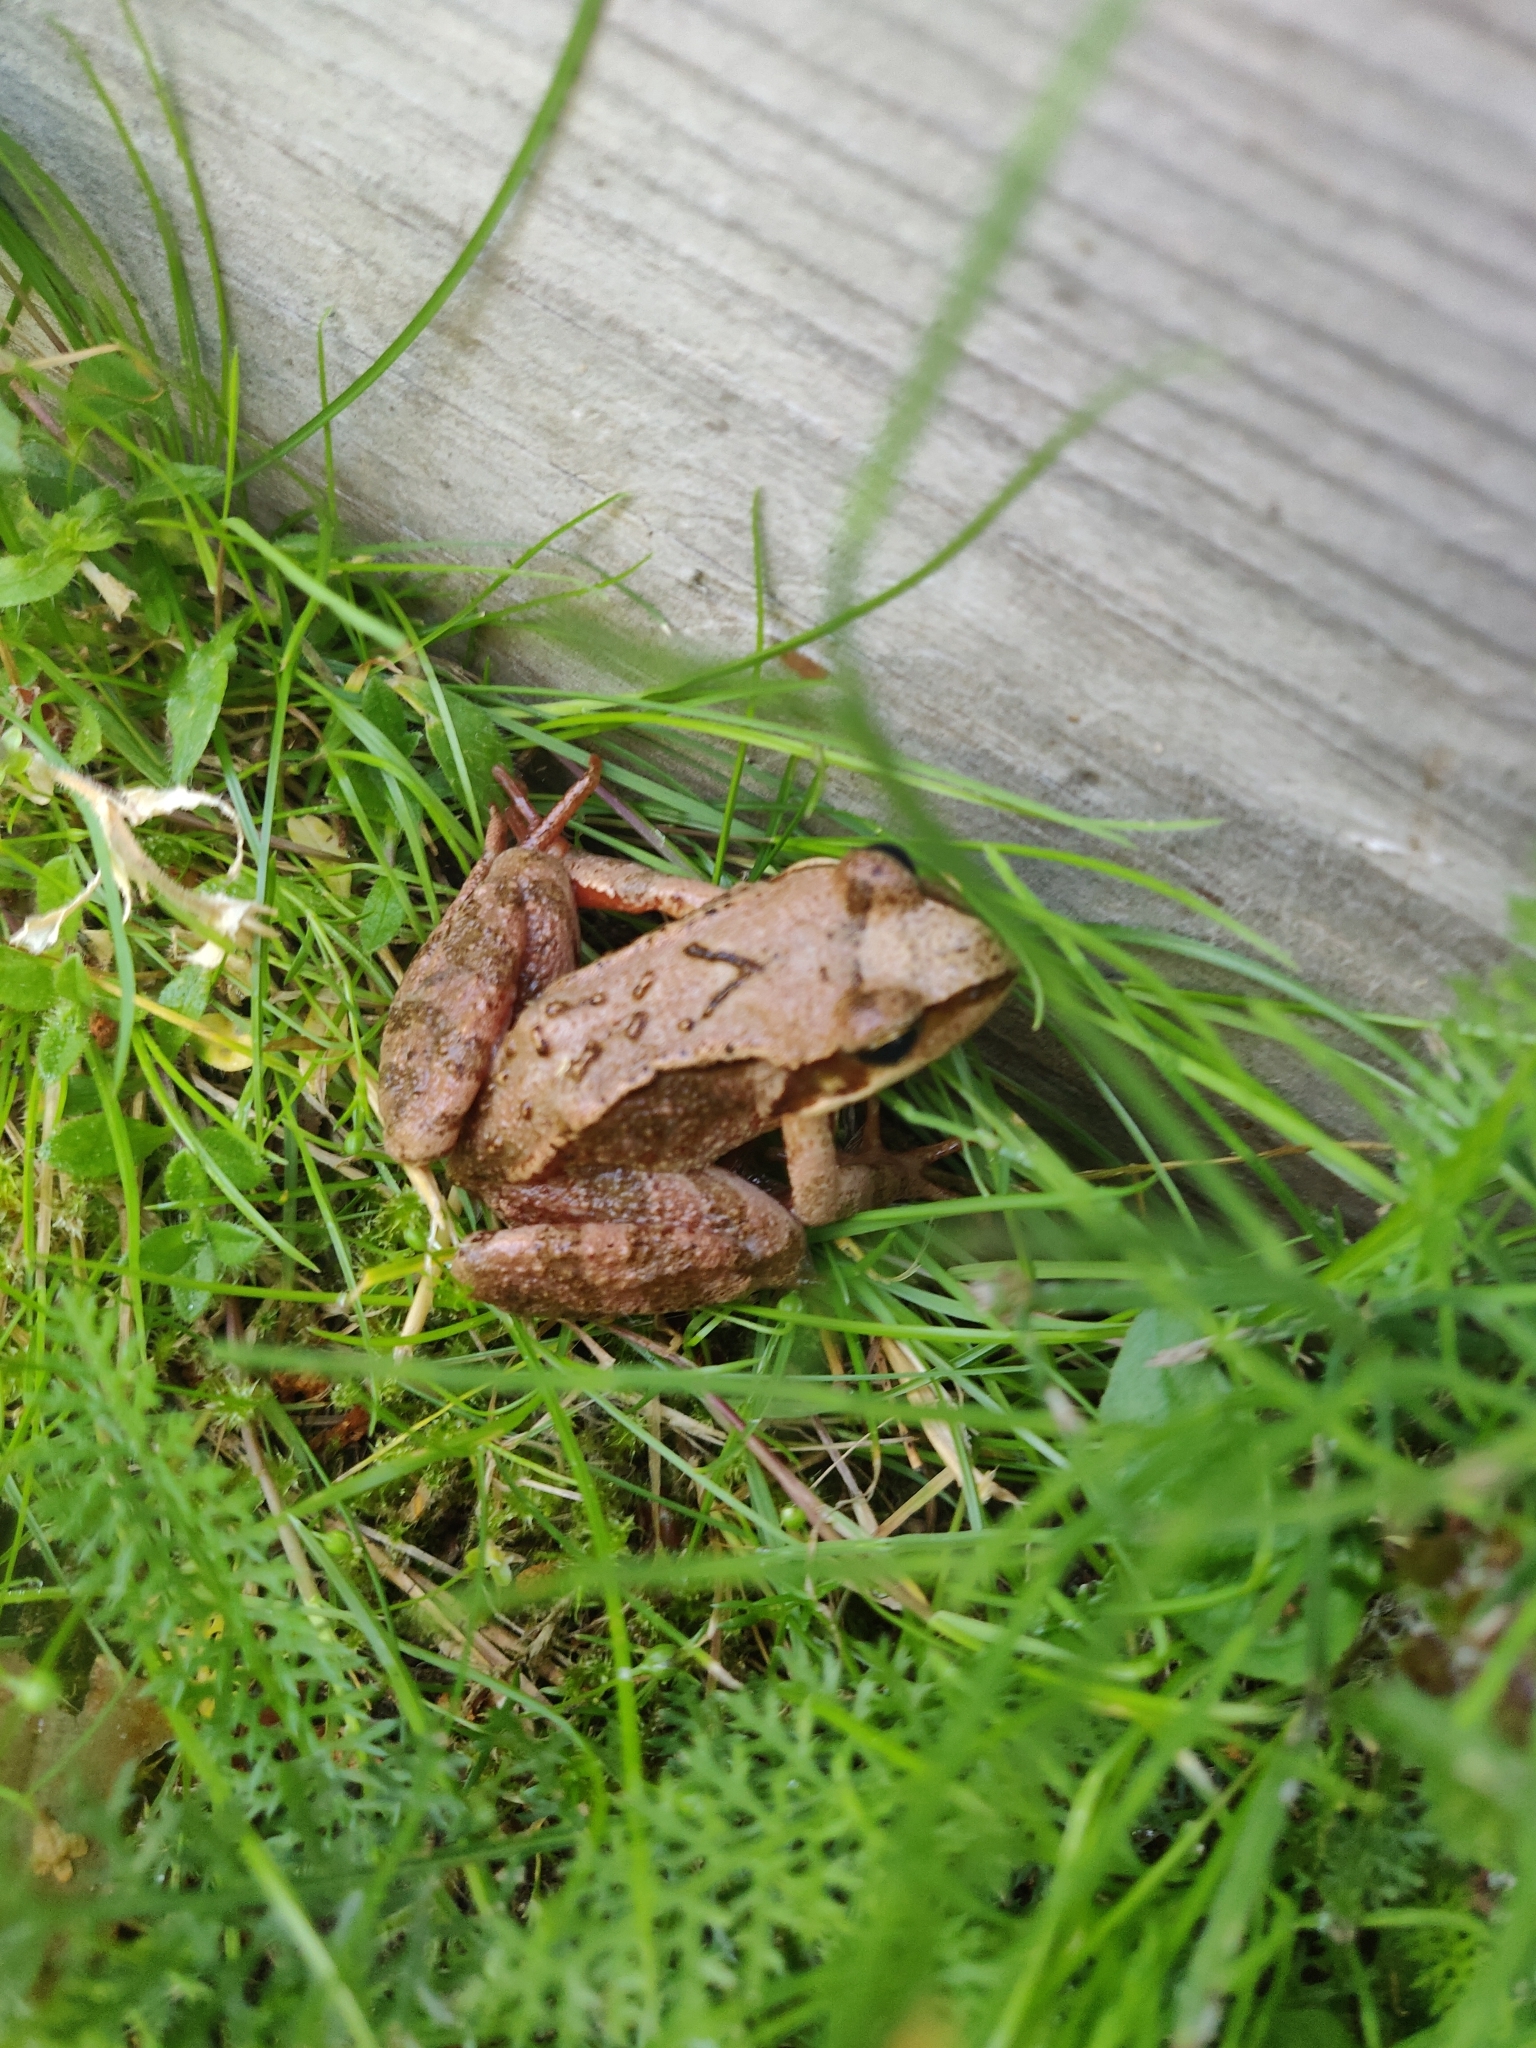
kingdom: Animalia
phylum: Chordata
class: Amphibia
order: Anura
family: Ranidae
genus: Rana
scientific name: Rana temporaria
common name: Common frog
